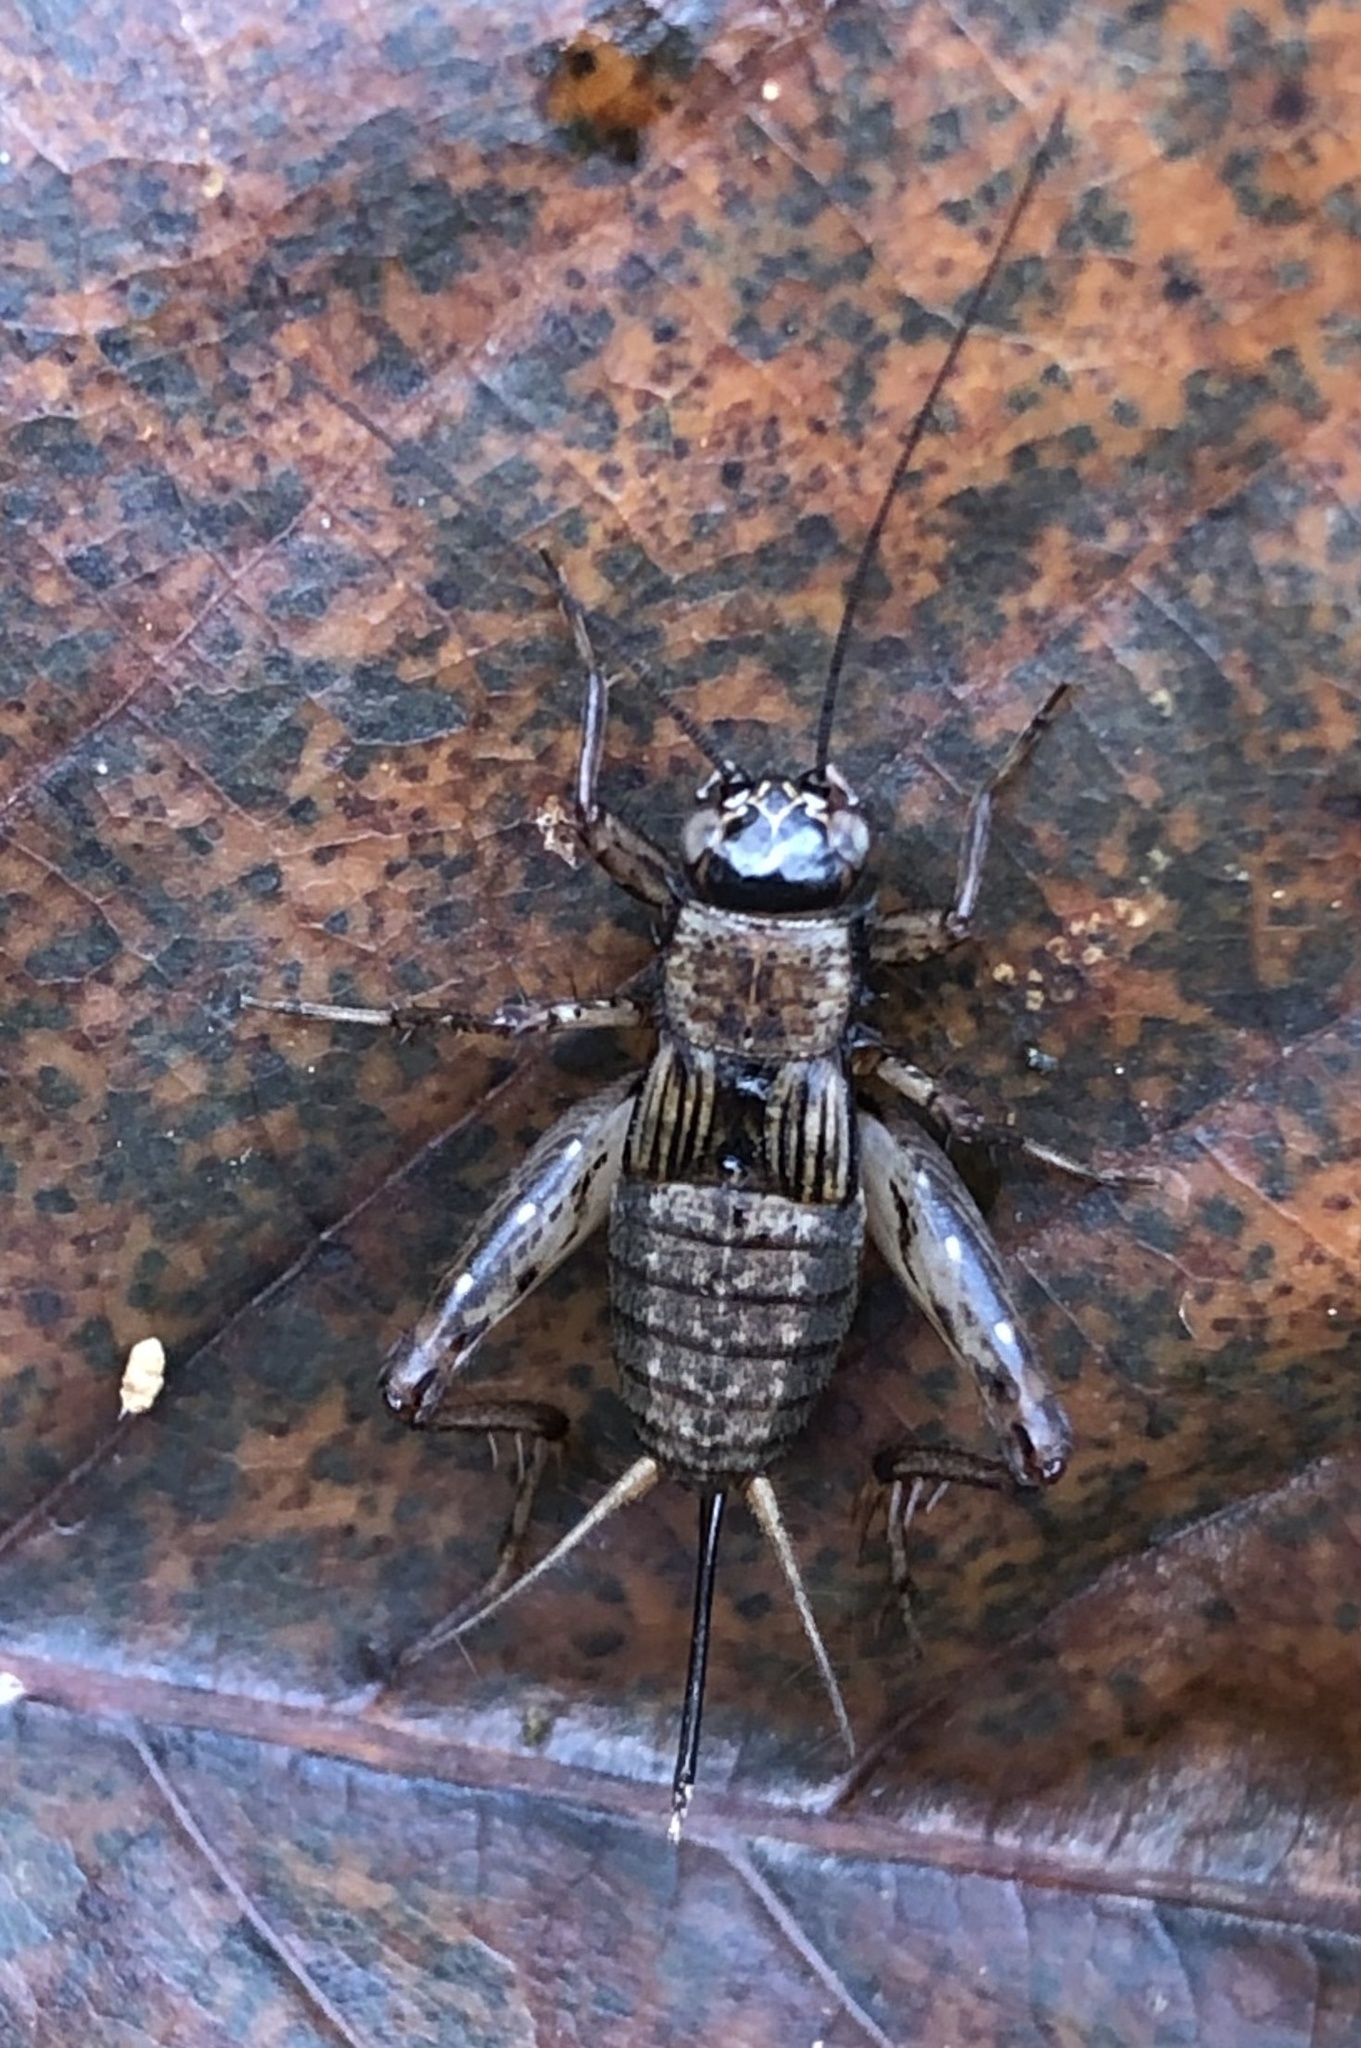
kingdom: Animalia
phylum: Arthropoda
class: Insecta
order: Orthoptera
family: Trigonidiidae
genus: Nemobius
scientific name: Nemobius sylvestris
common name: Wood-cricket
